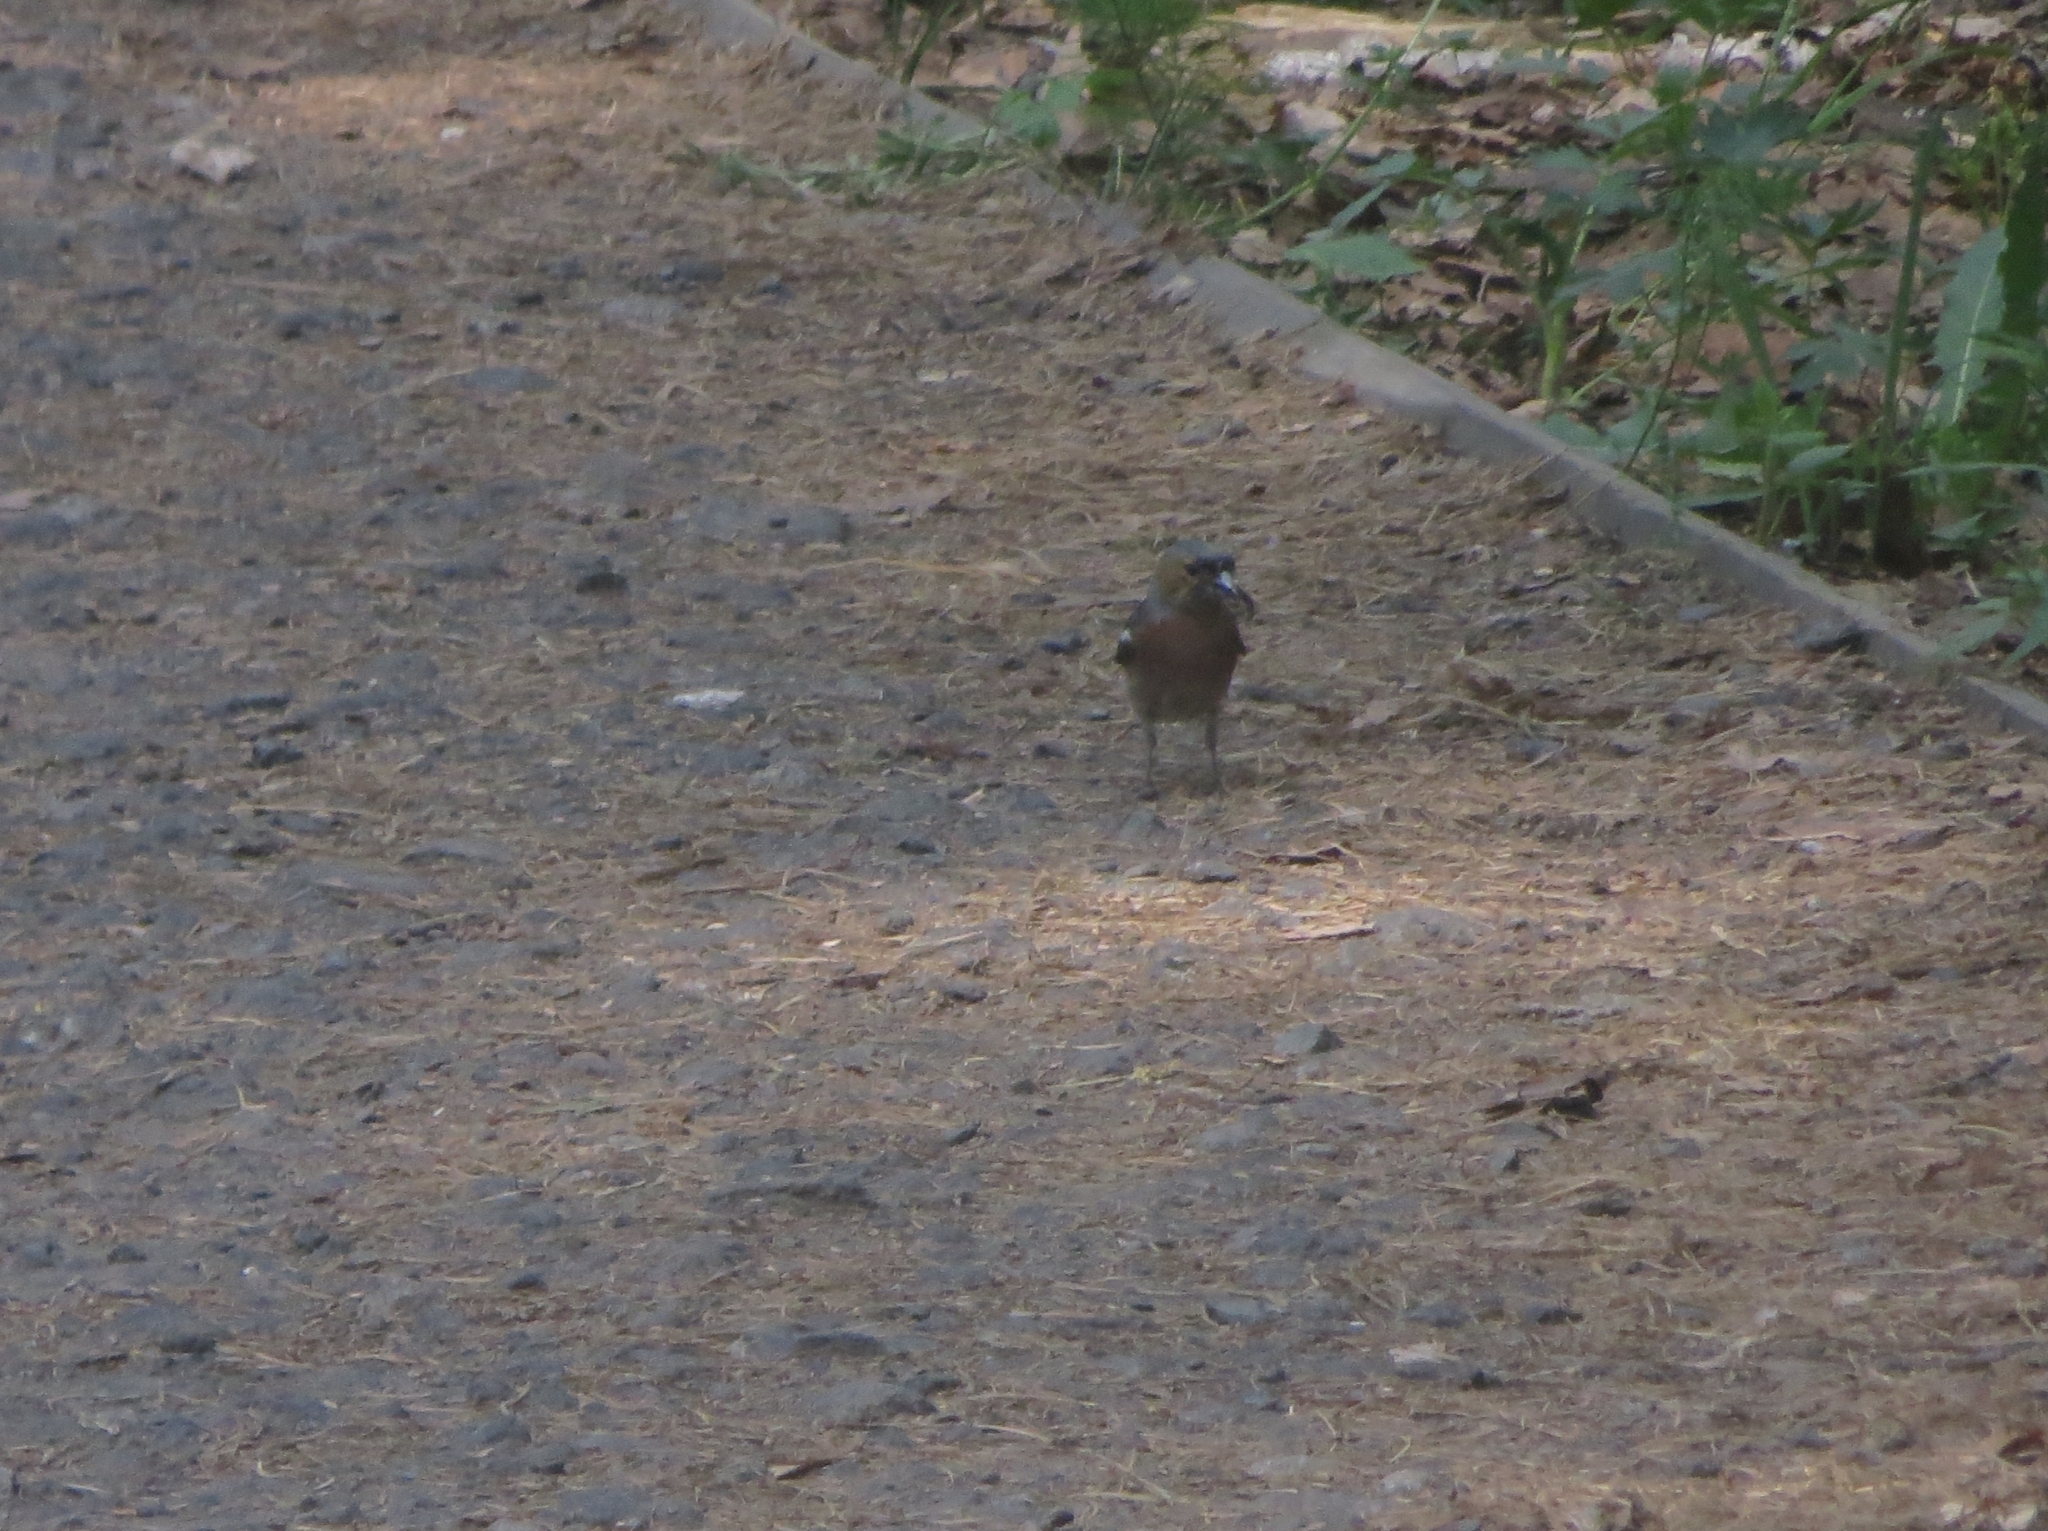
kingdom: Animalia
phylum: Chordata
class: Aves
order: Passeriformes
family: Fringillidae
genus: Fringilla
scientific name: Fringilla coelebs
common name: Common chaffinch
